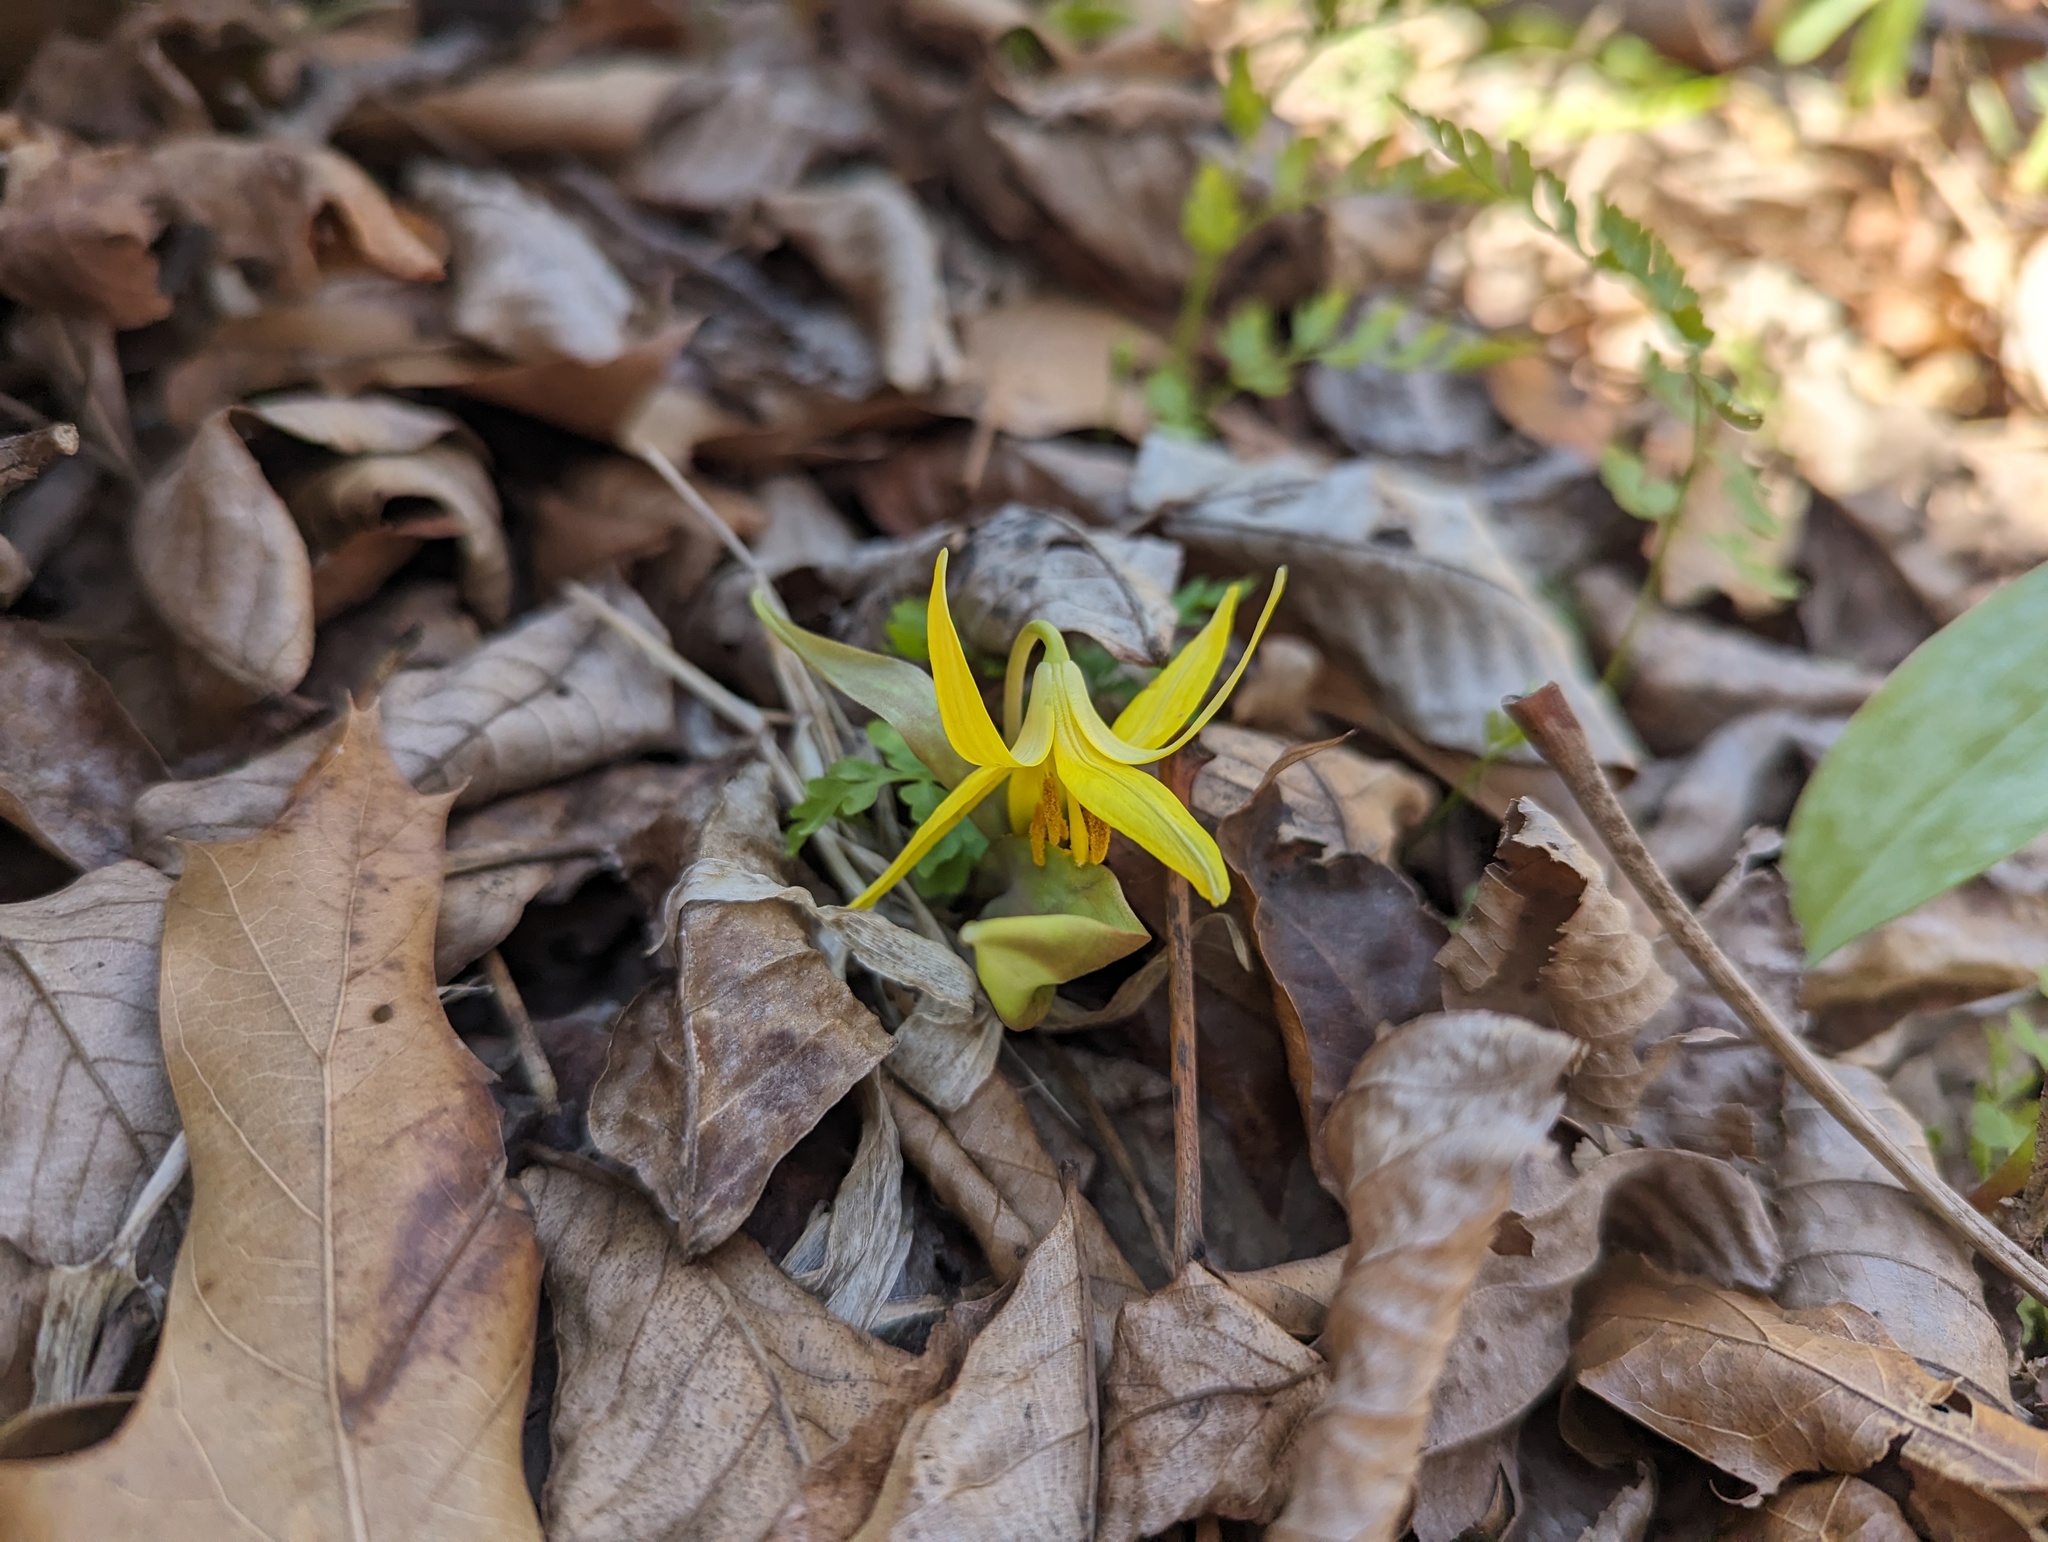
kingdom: Plantae
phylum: Tracheophyta
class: Liliopsida
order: Liliales
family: Liliaceae
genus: Erythronium
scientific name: Erythronium americanum
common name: Yellow adder's-tongue
